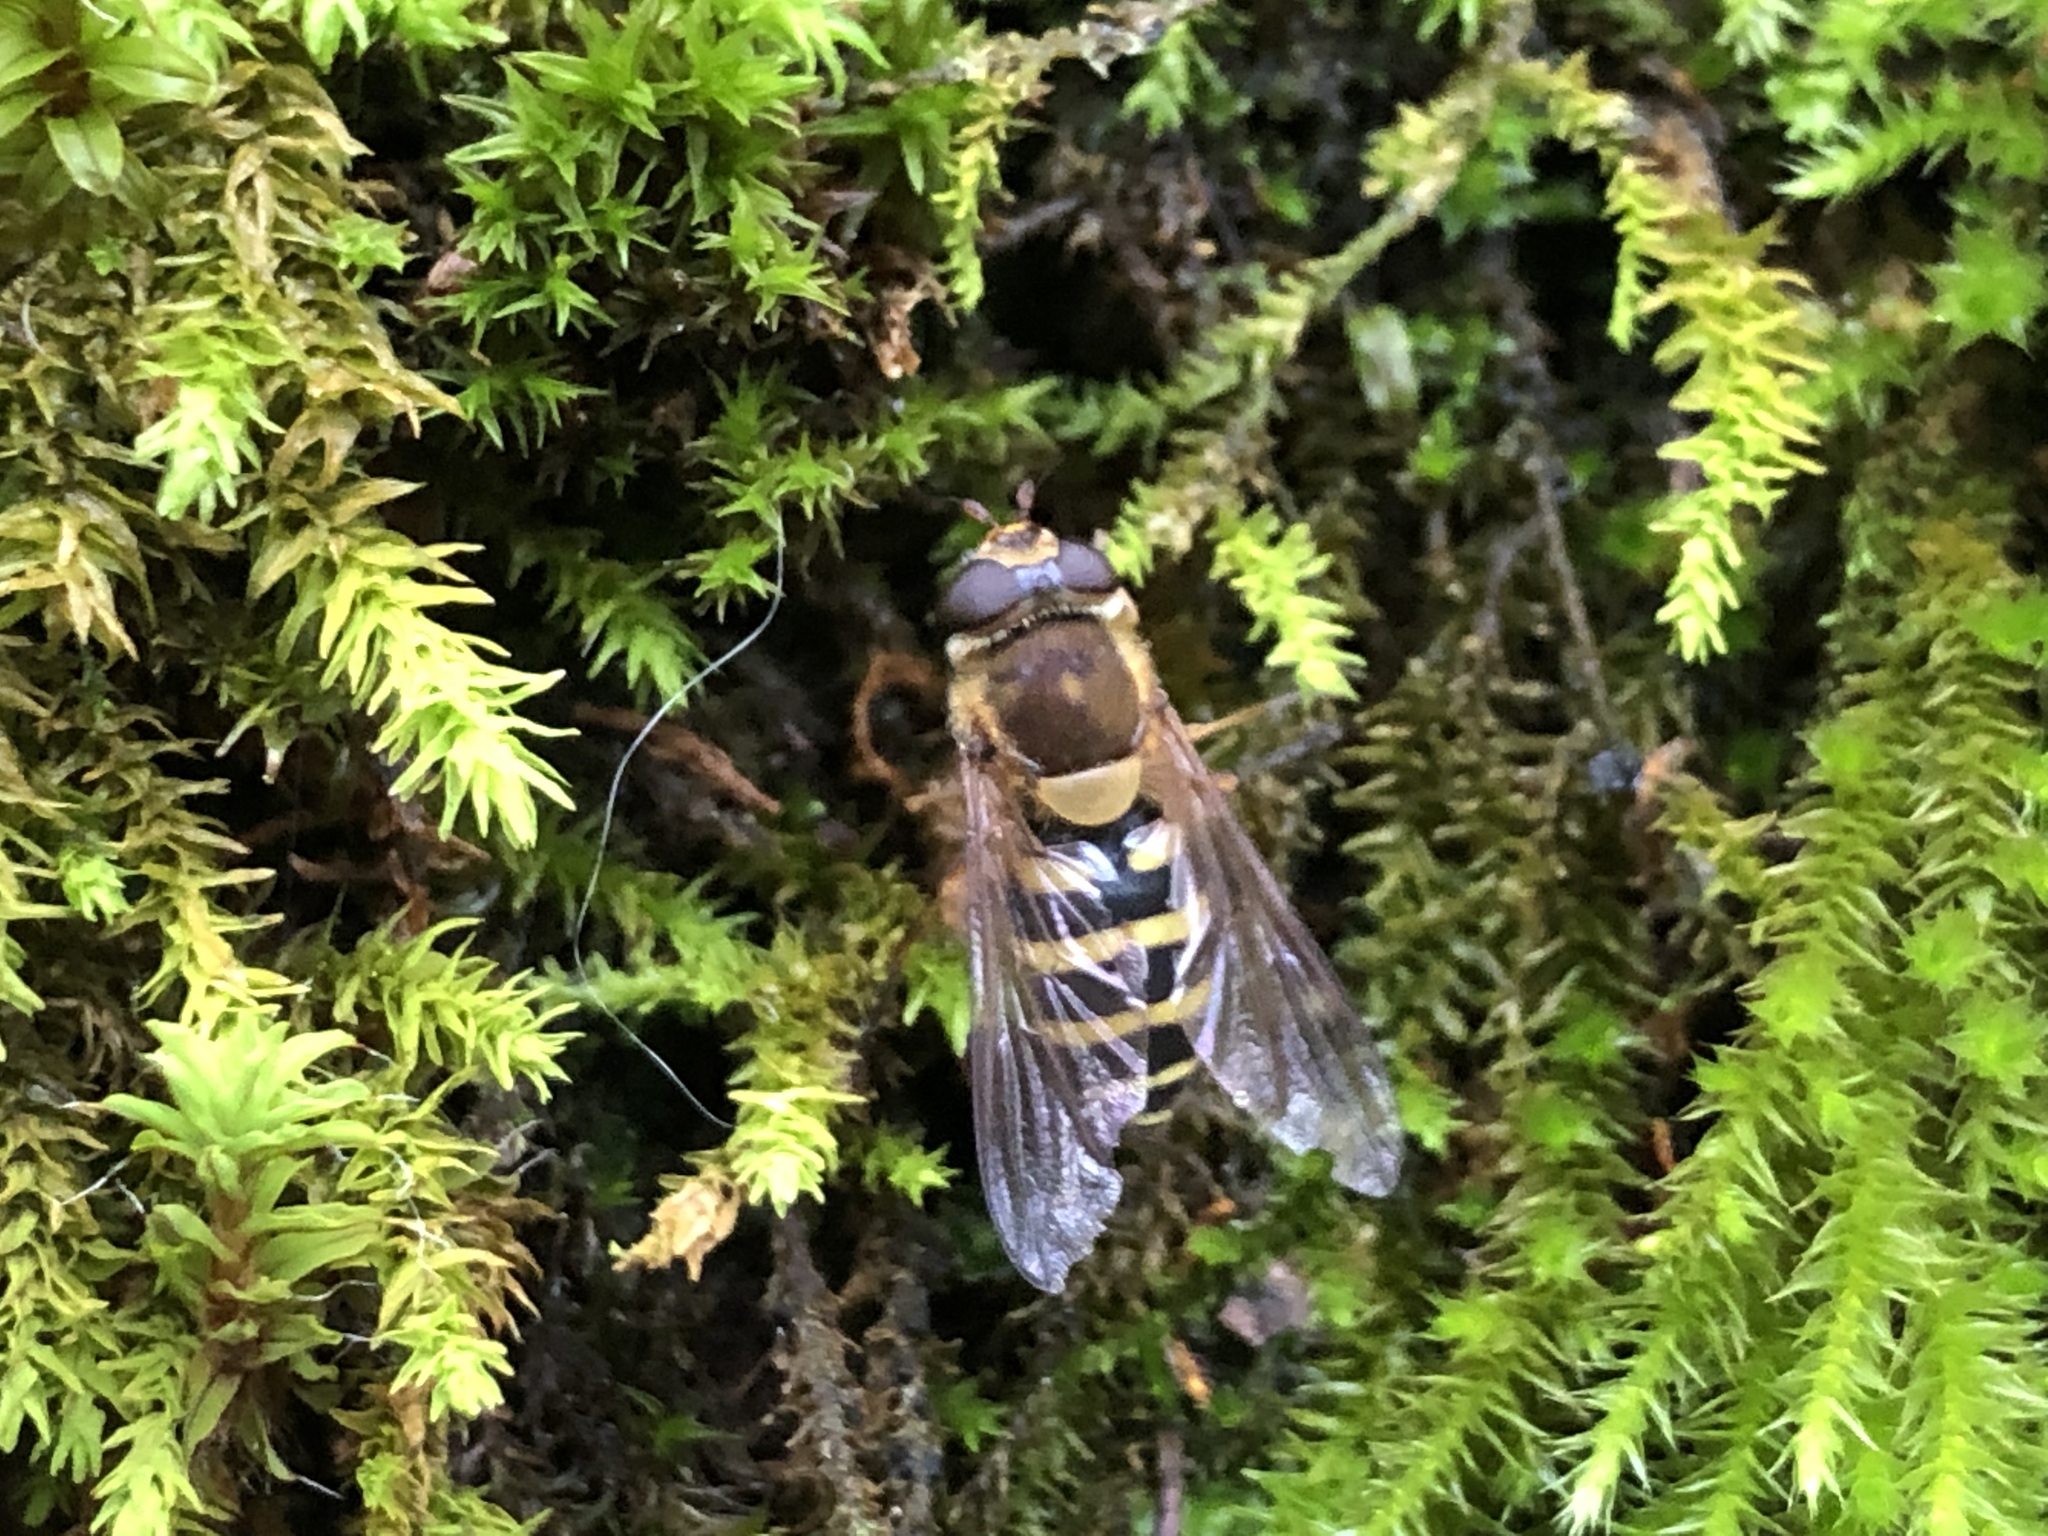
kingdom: Animalia
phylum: Arthropoda
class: Insecta
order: Diptera
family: Syrphidae
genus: Syrphus
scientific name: Syrphus
